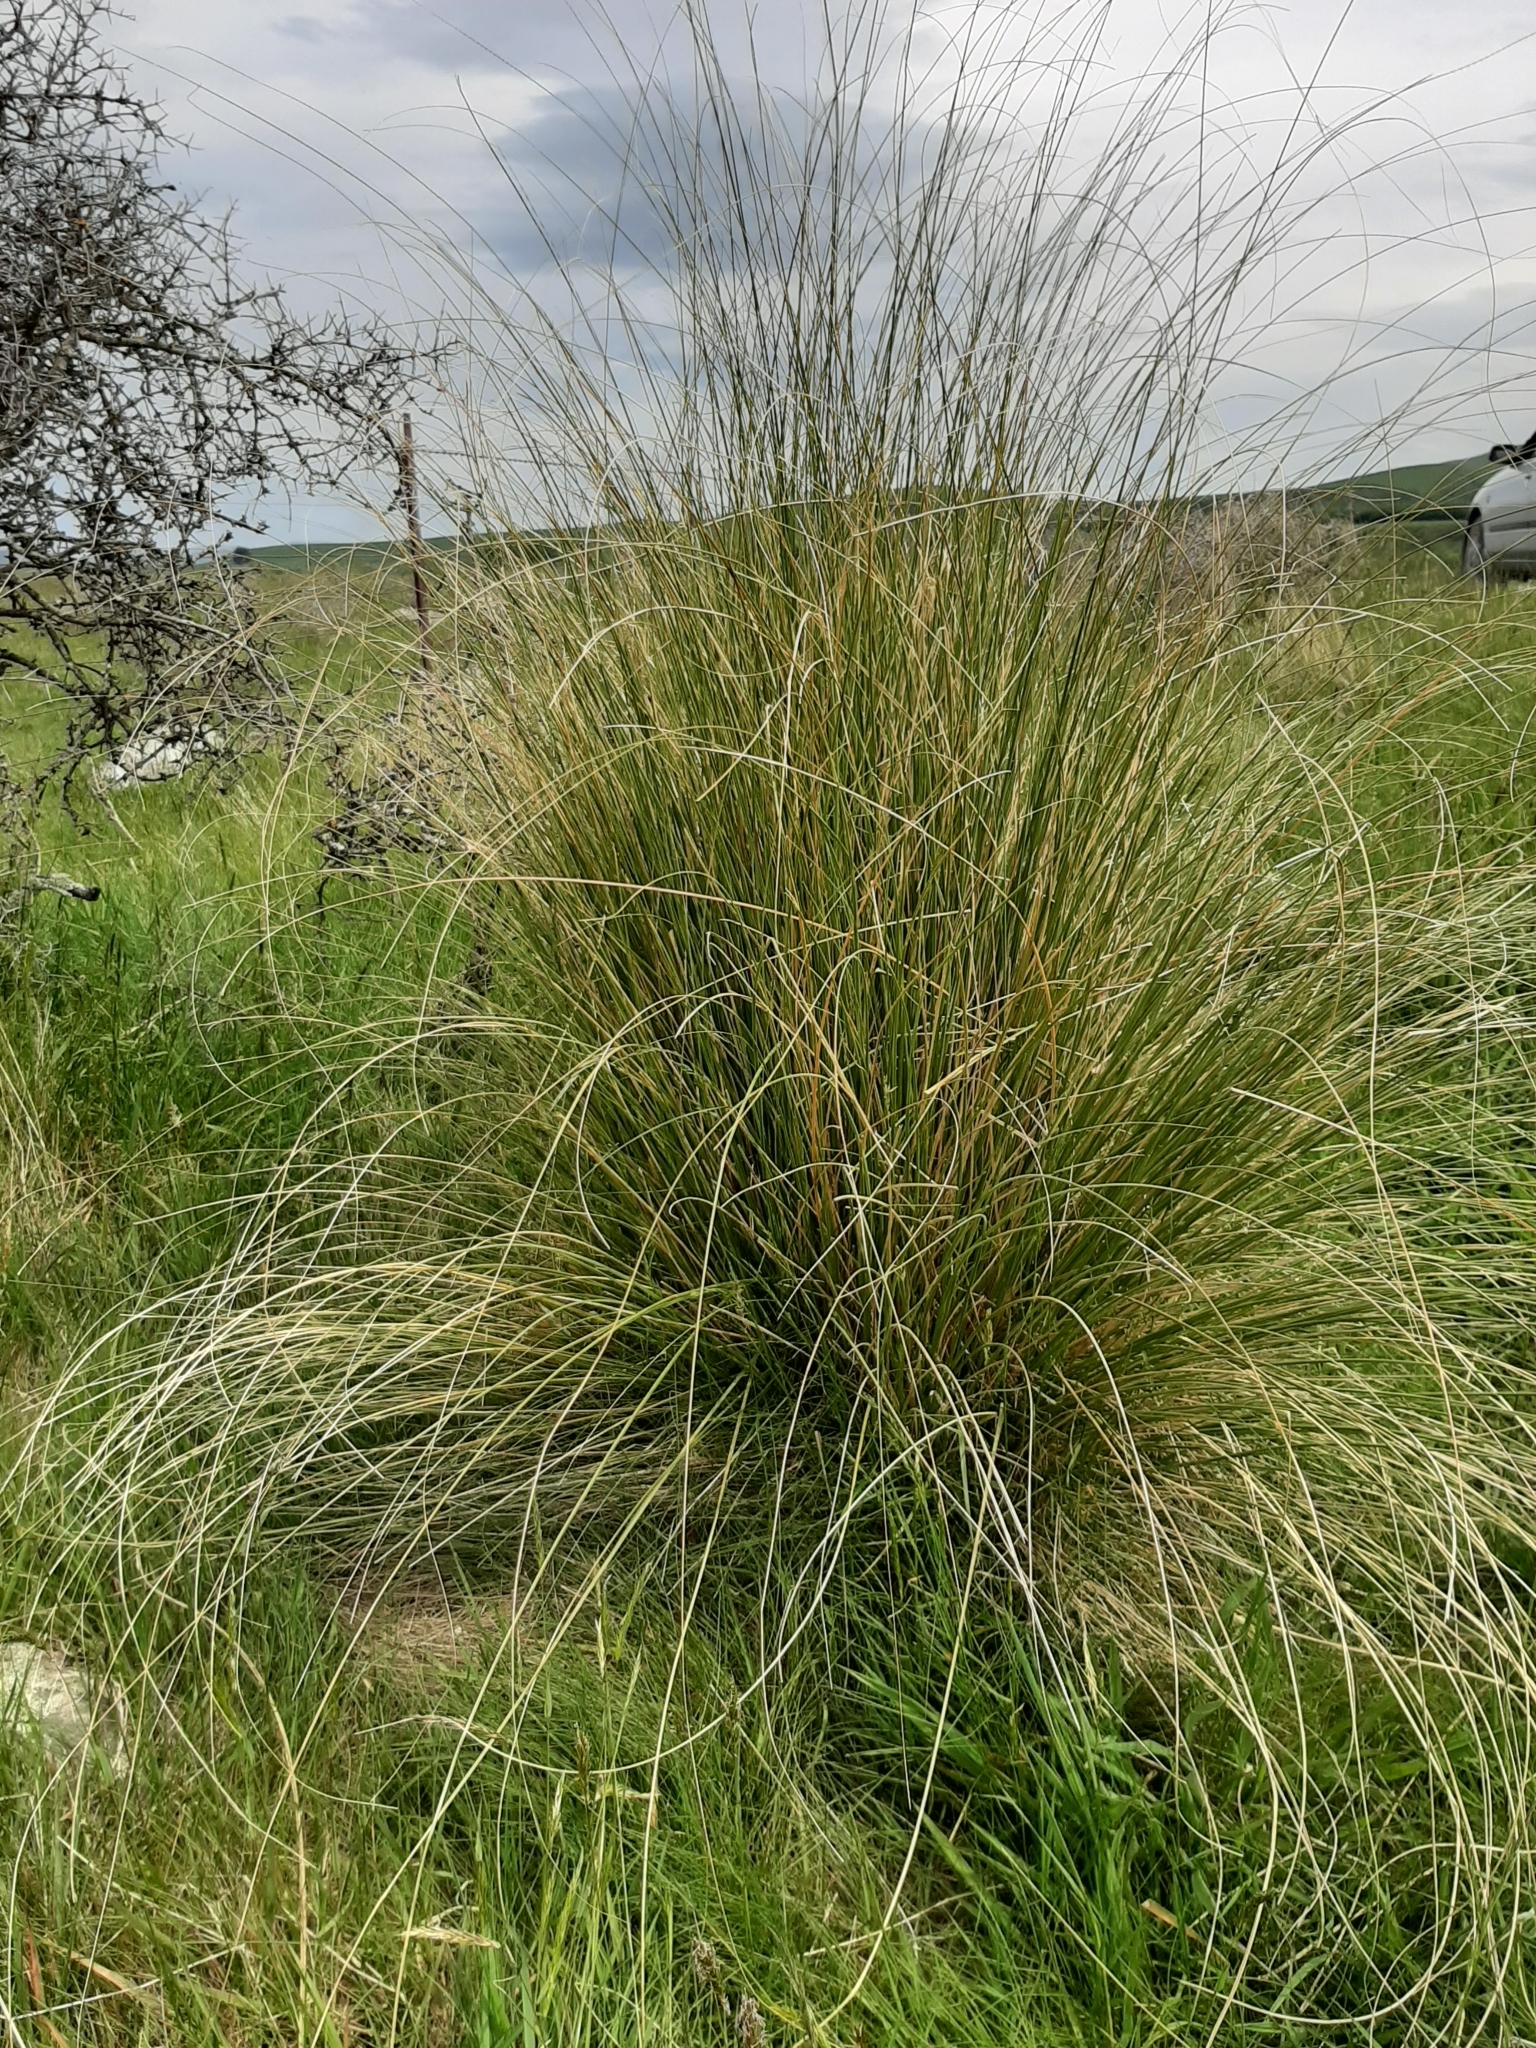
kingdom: Plantae
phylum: Tracheophyta
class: Liliopsida
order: Poales
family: Poaceae
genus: Chionochloa
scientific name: Chionochloa rigida
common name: Narrow leaved snow tussock
